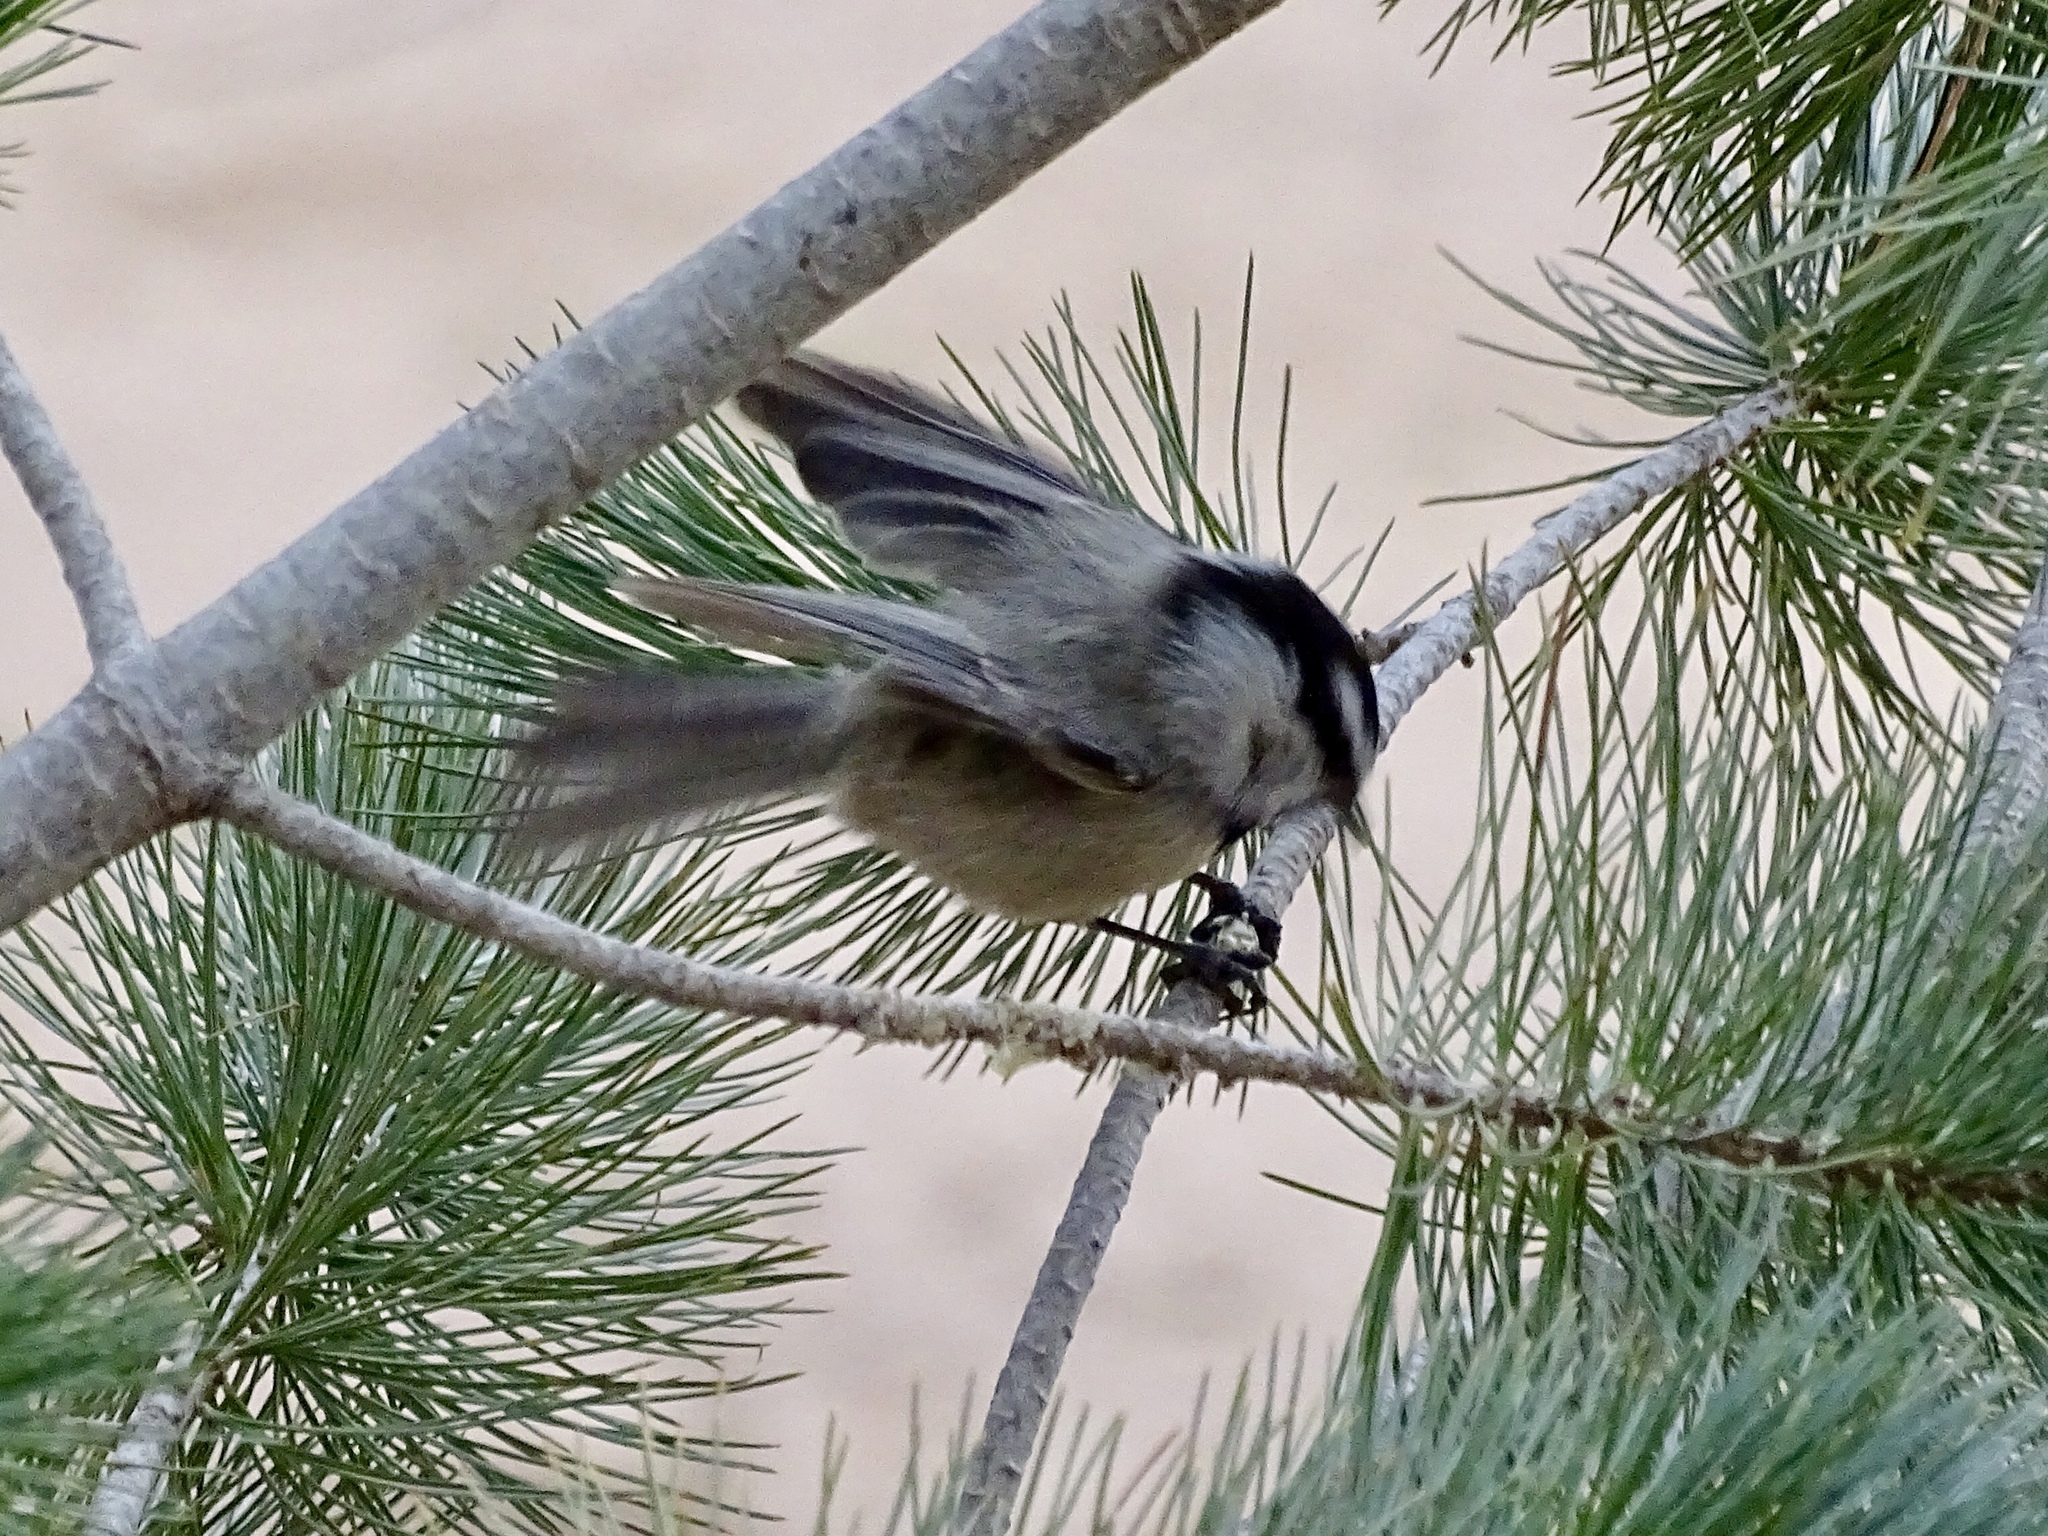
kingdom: Animalia
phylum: Chordata
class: Aves
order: Passeriformes
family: Paridae
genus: Poecile
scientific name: Poecile gambeli
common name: Mountain chickadee
